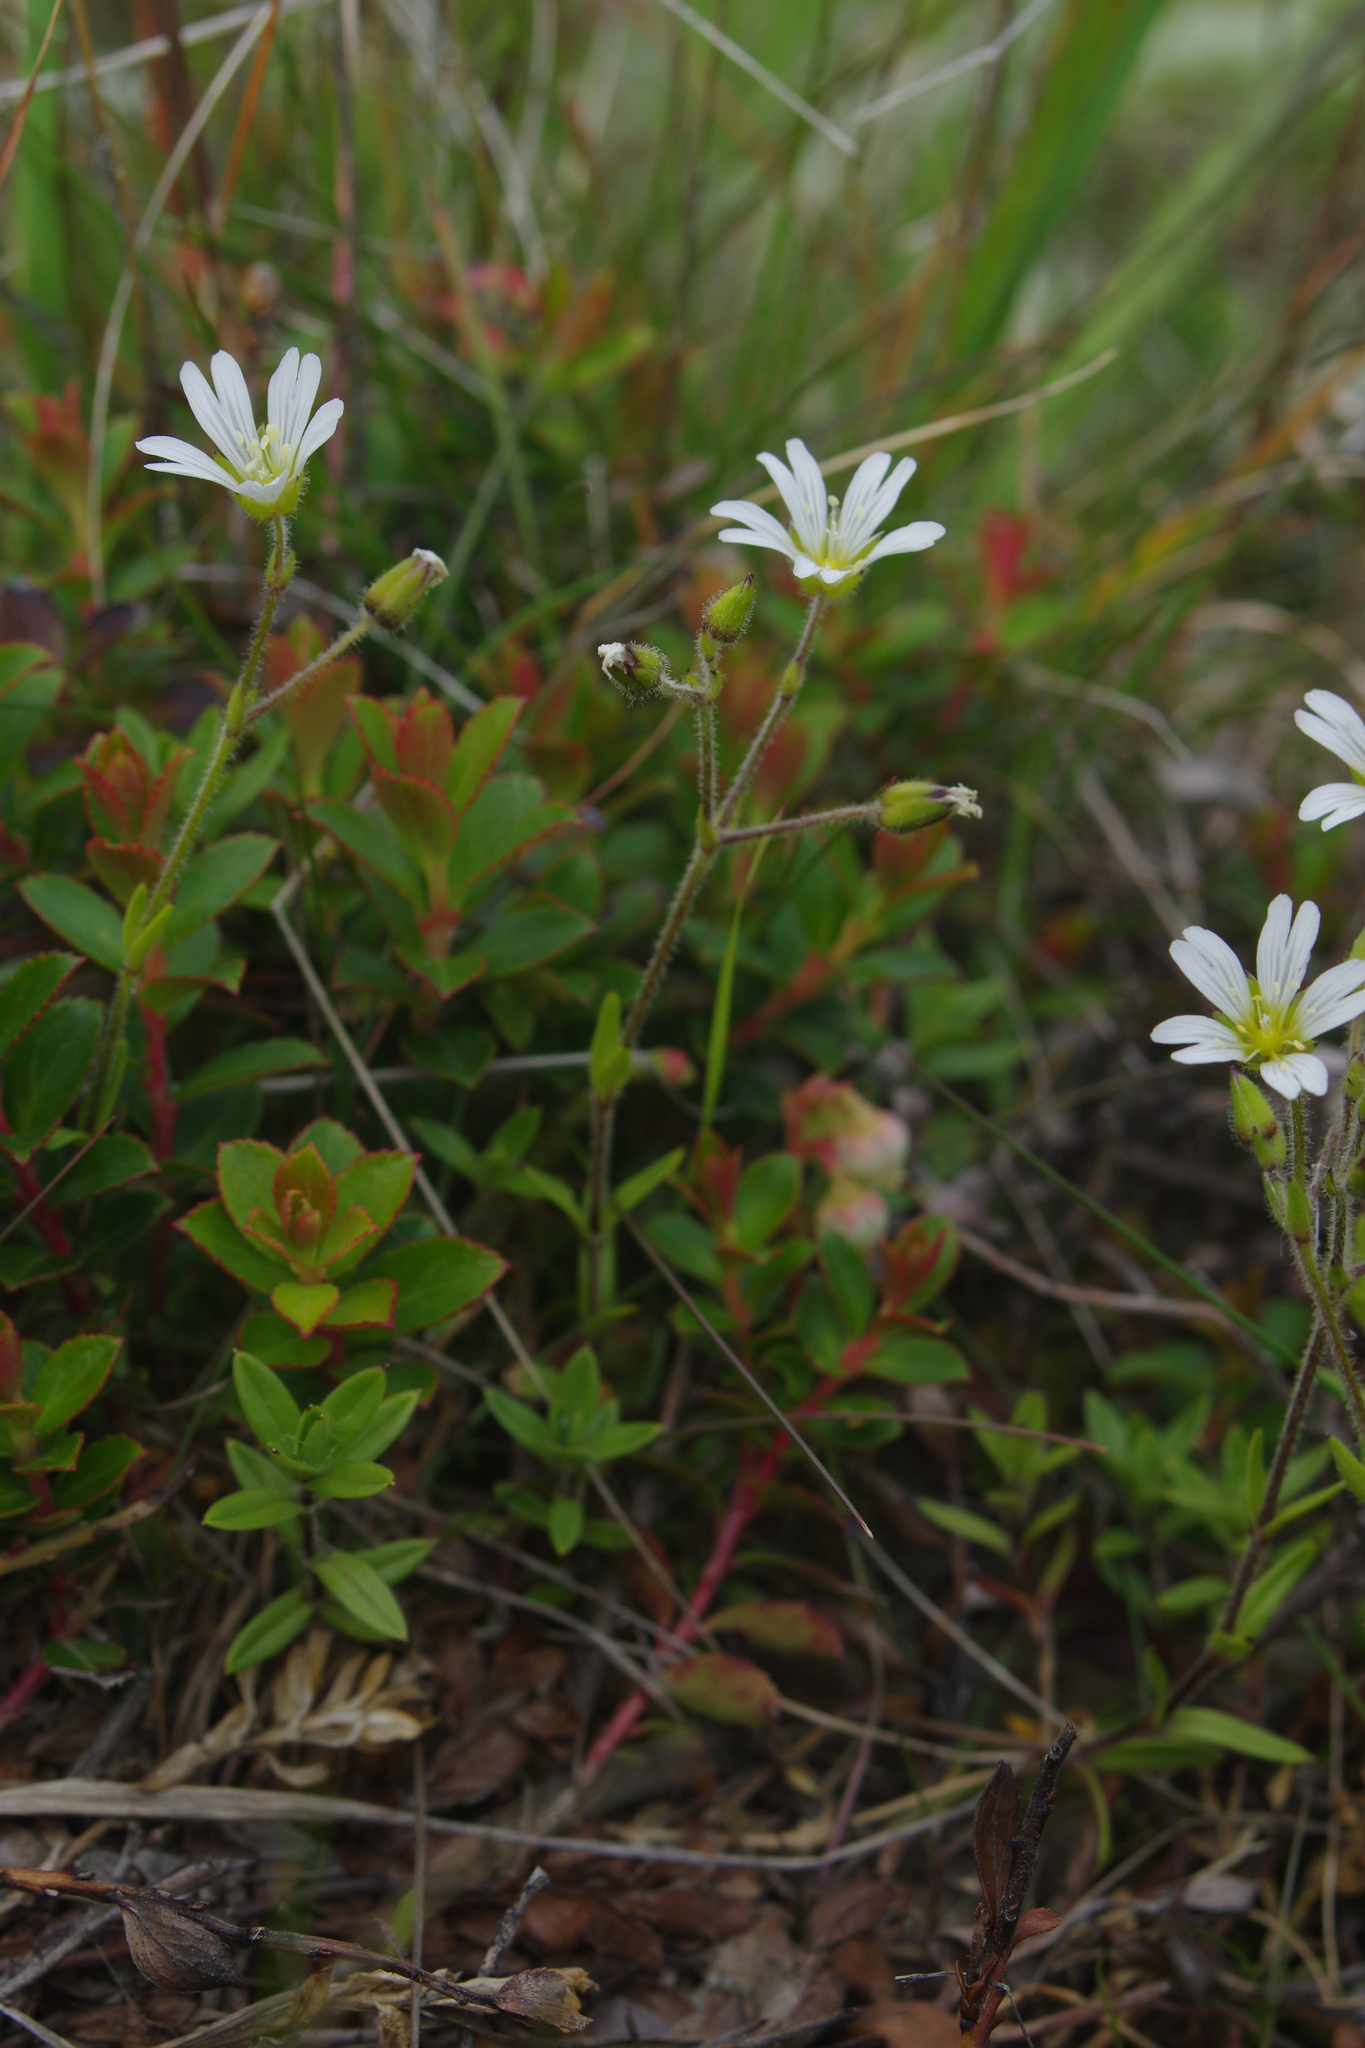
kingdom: Plantae
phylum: Tracheophyta
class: Magnoliopsida
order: Caryophyllales
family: Caryophyllaceae
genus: Cerastium
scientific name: Cerastium morrisonense
